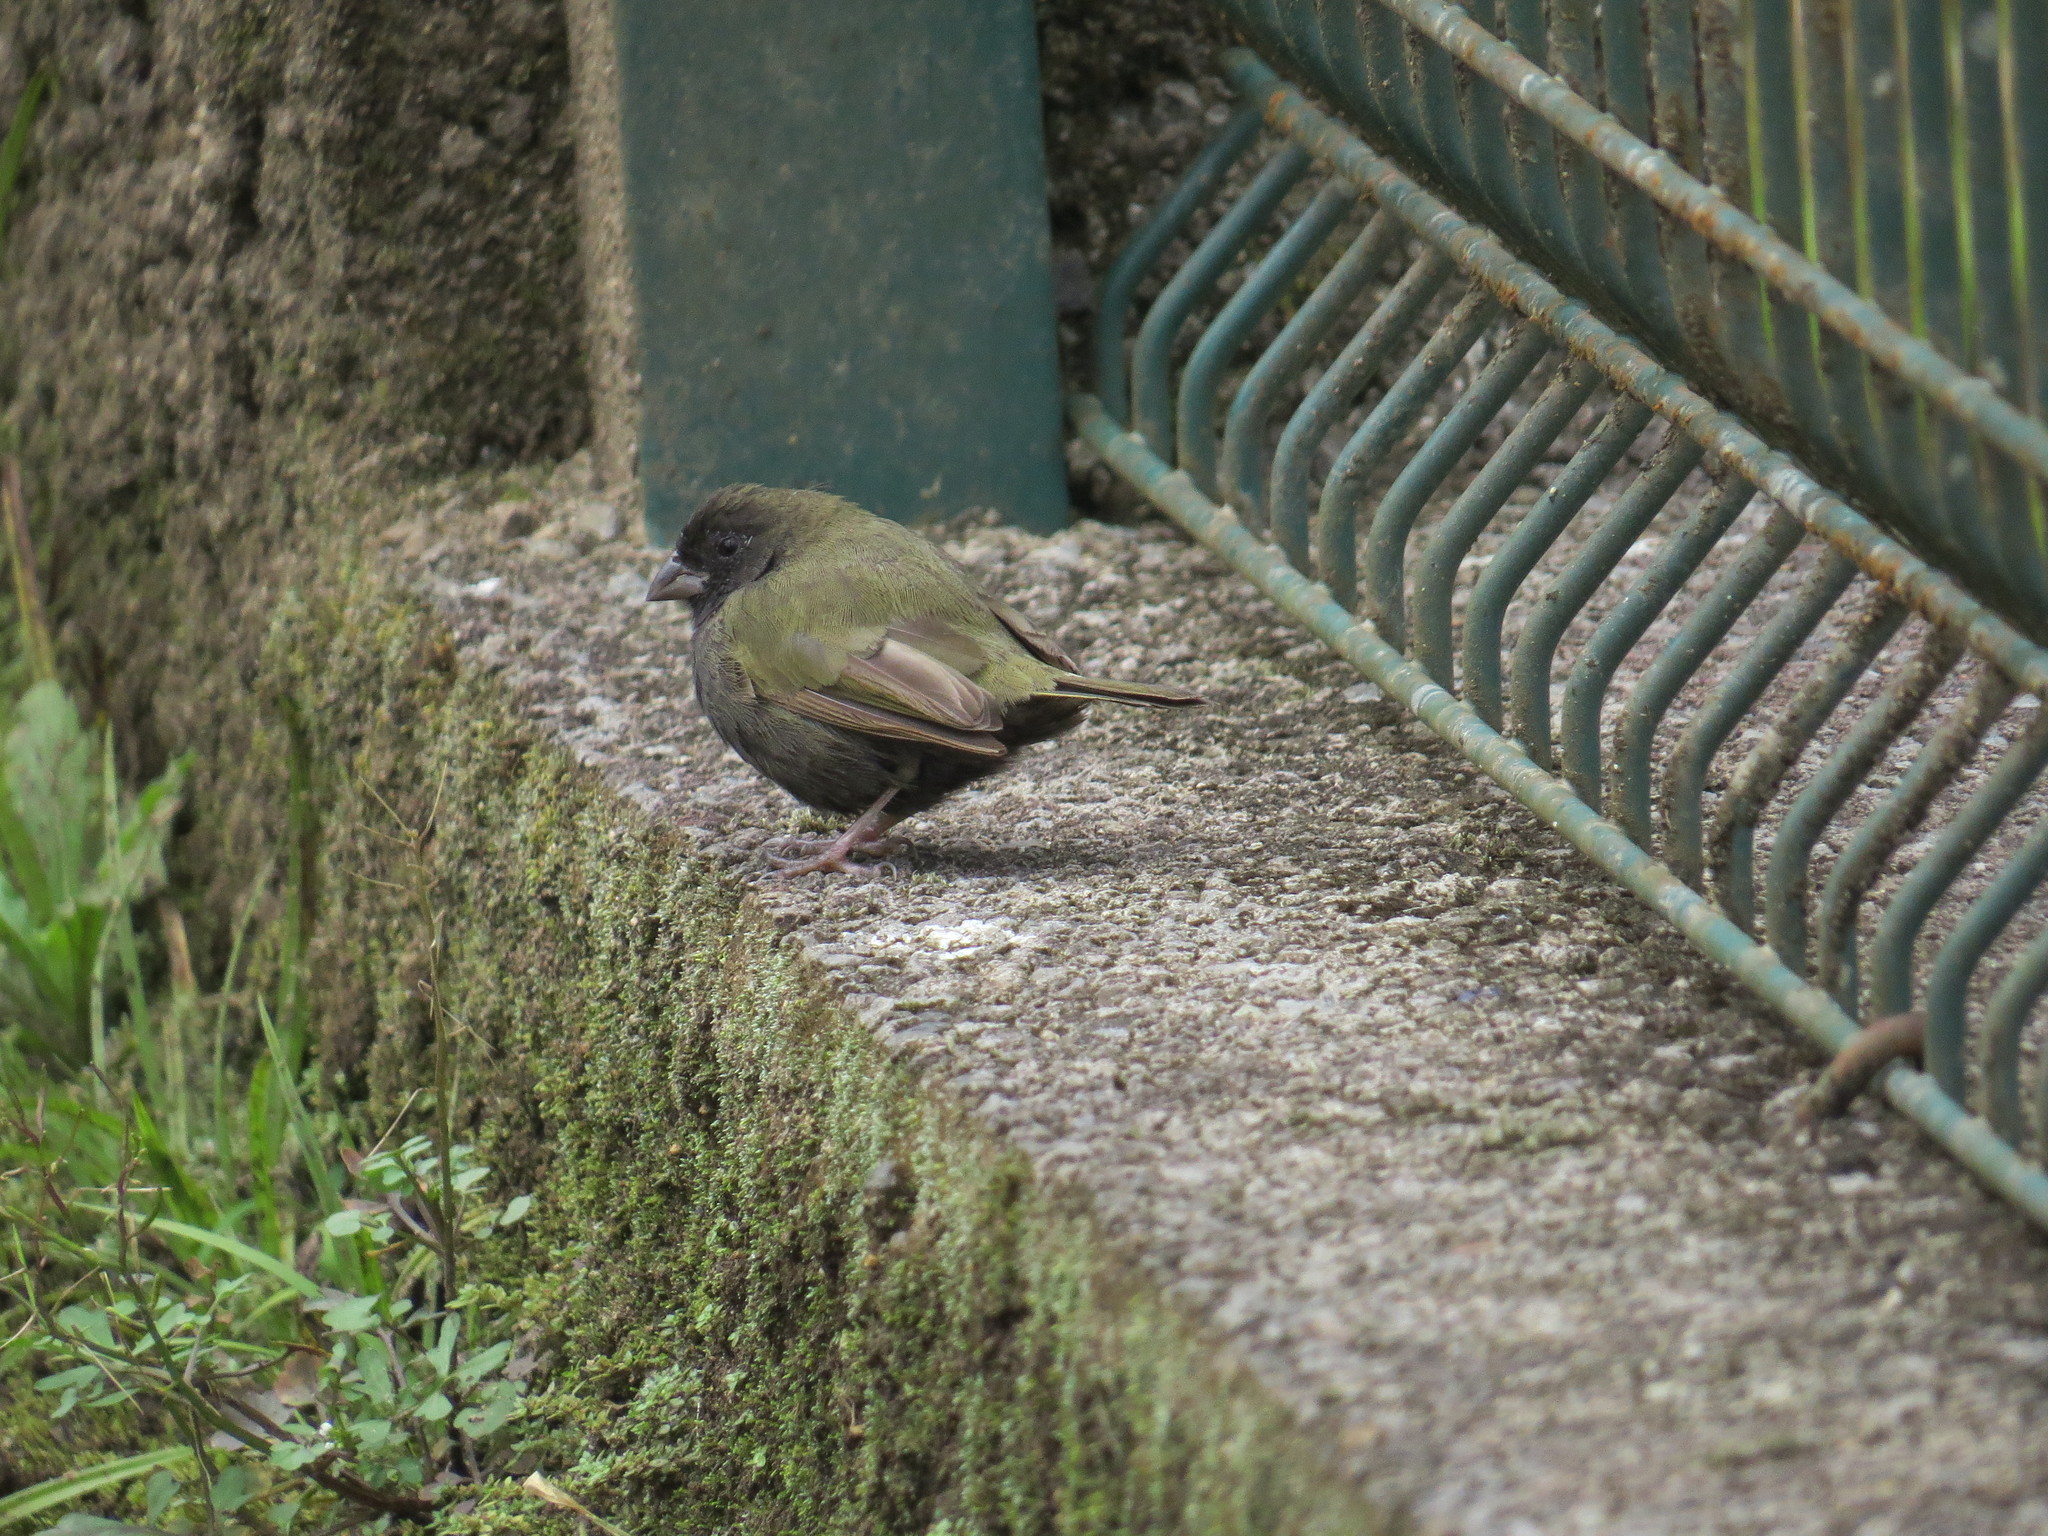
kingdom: Animalia
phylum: Chordata
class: Aves
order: Passeriformes
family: Thraupidae
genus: Melanospiza
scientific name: Melanospiza bicolor
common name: Black-faced grassquit
